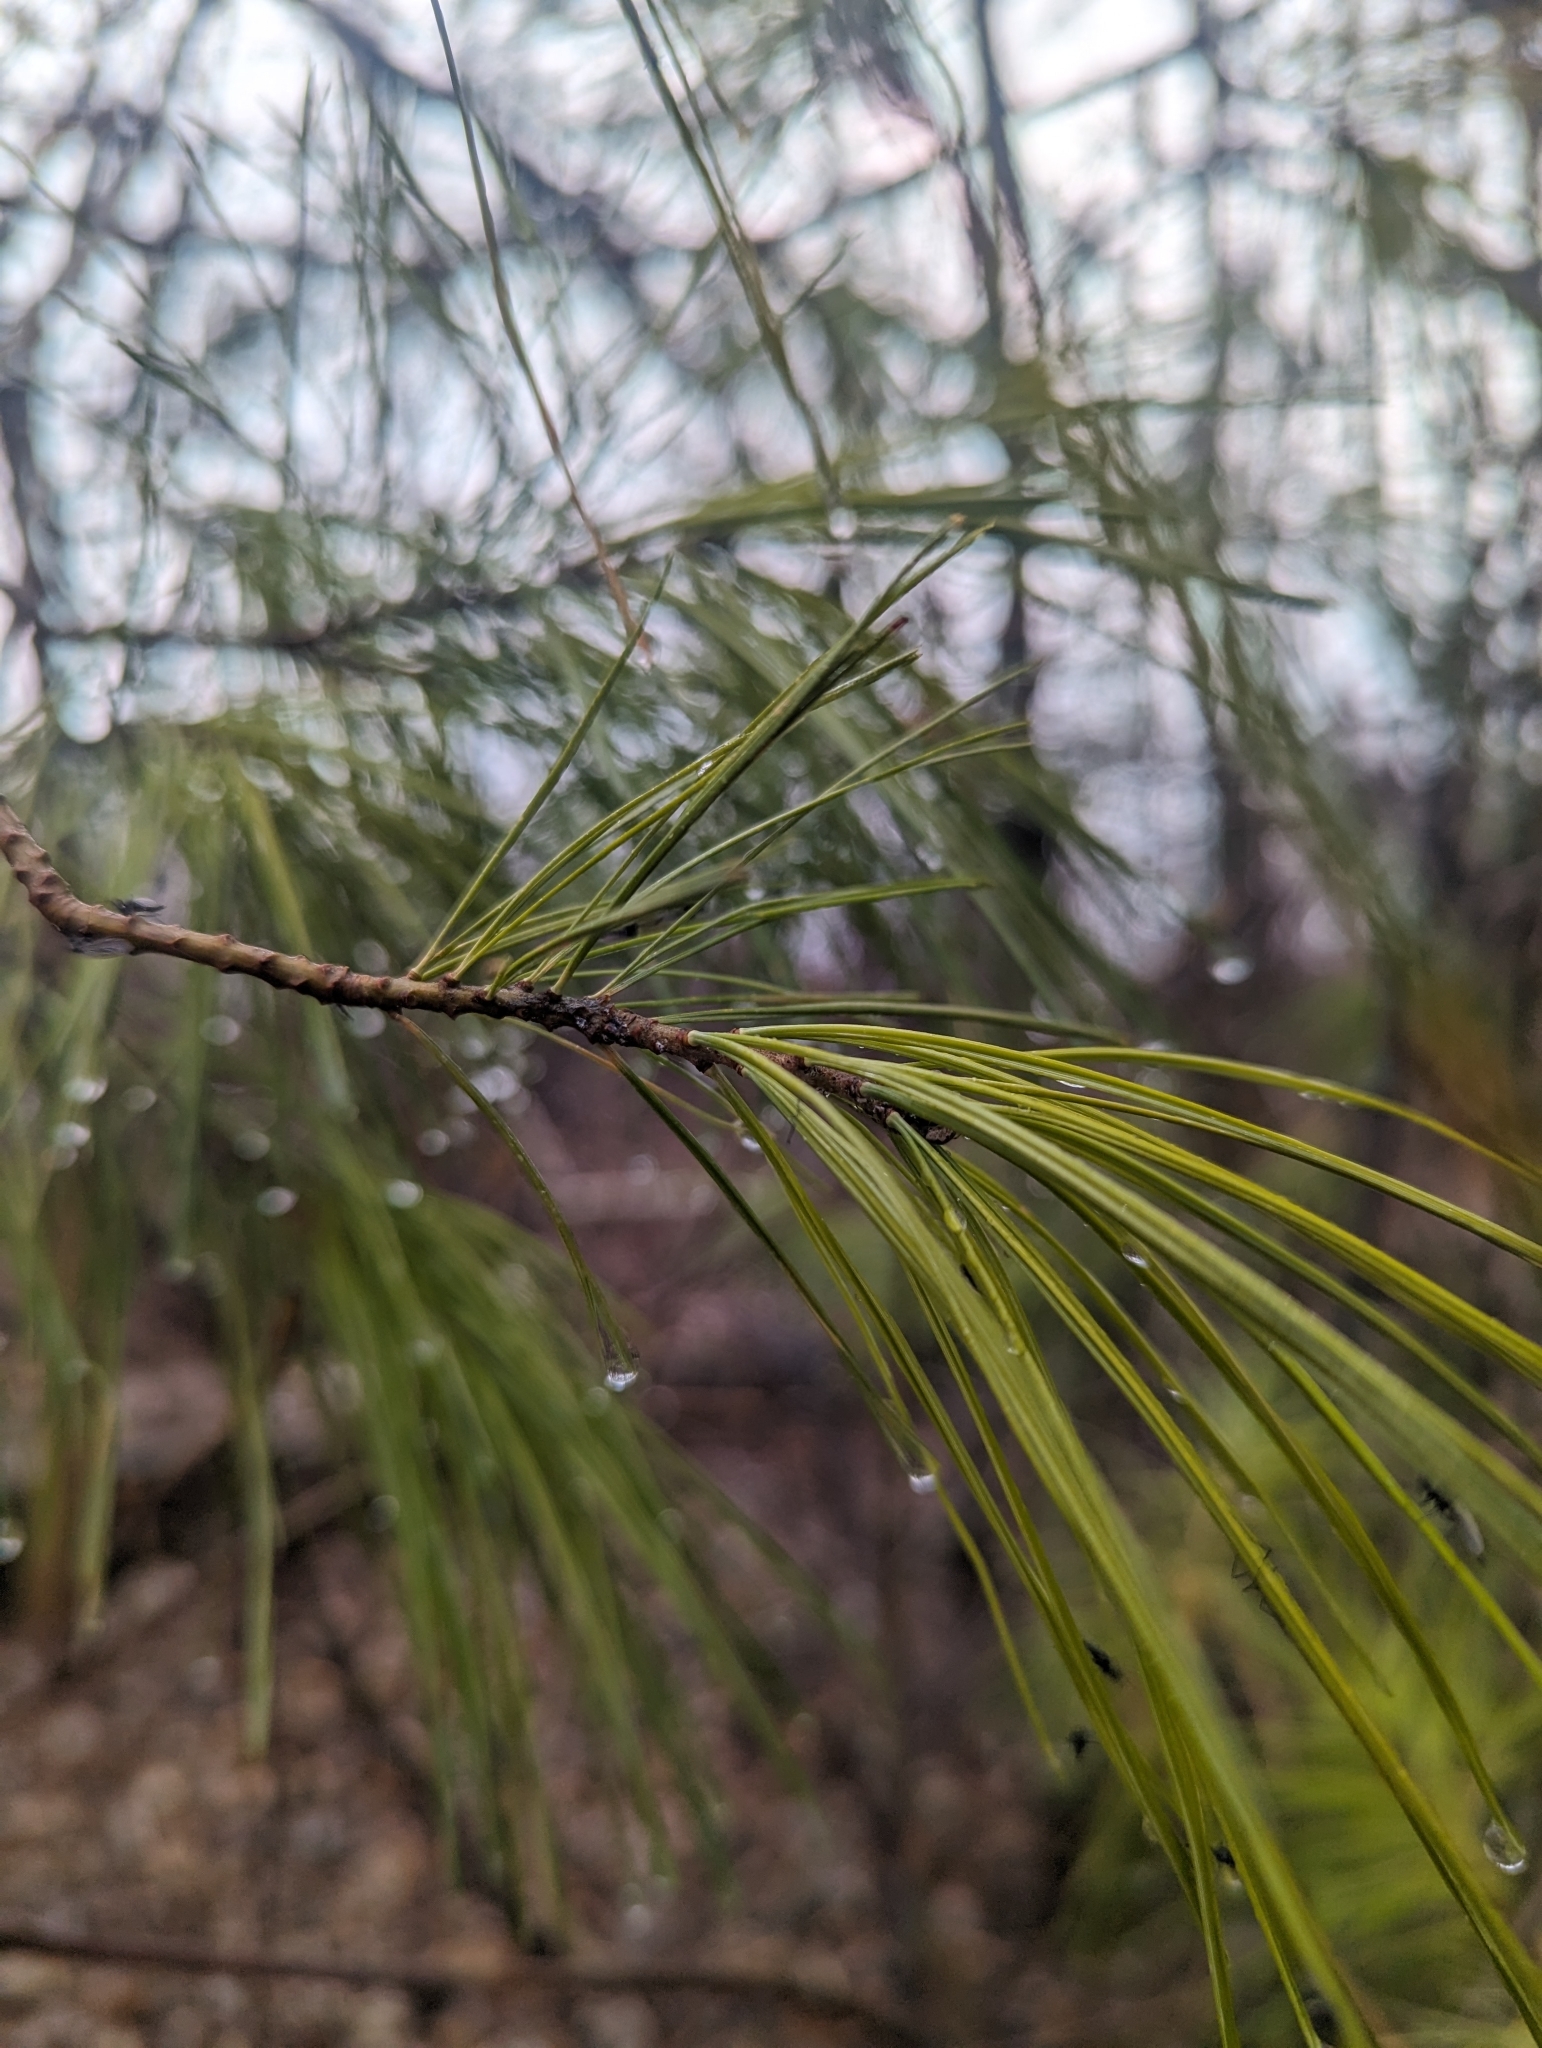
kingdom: Plantae
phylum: Tracheophyta
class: Pinopsida
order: Pinales
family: Pinaceae
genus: Pinus
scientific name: Pinus strobus
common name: Weymouth pine
